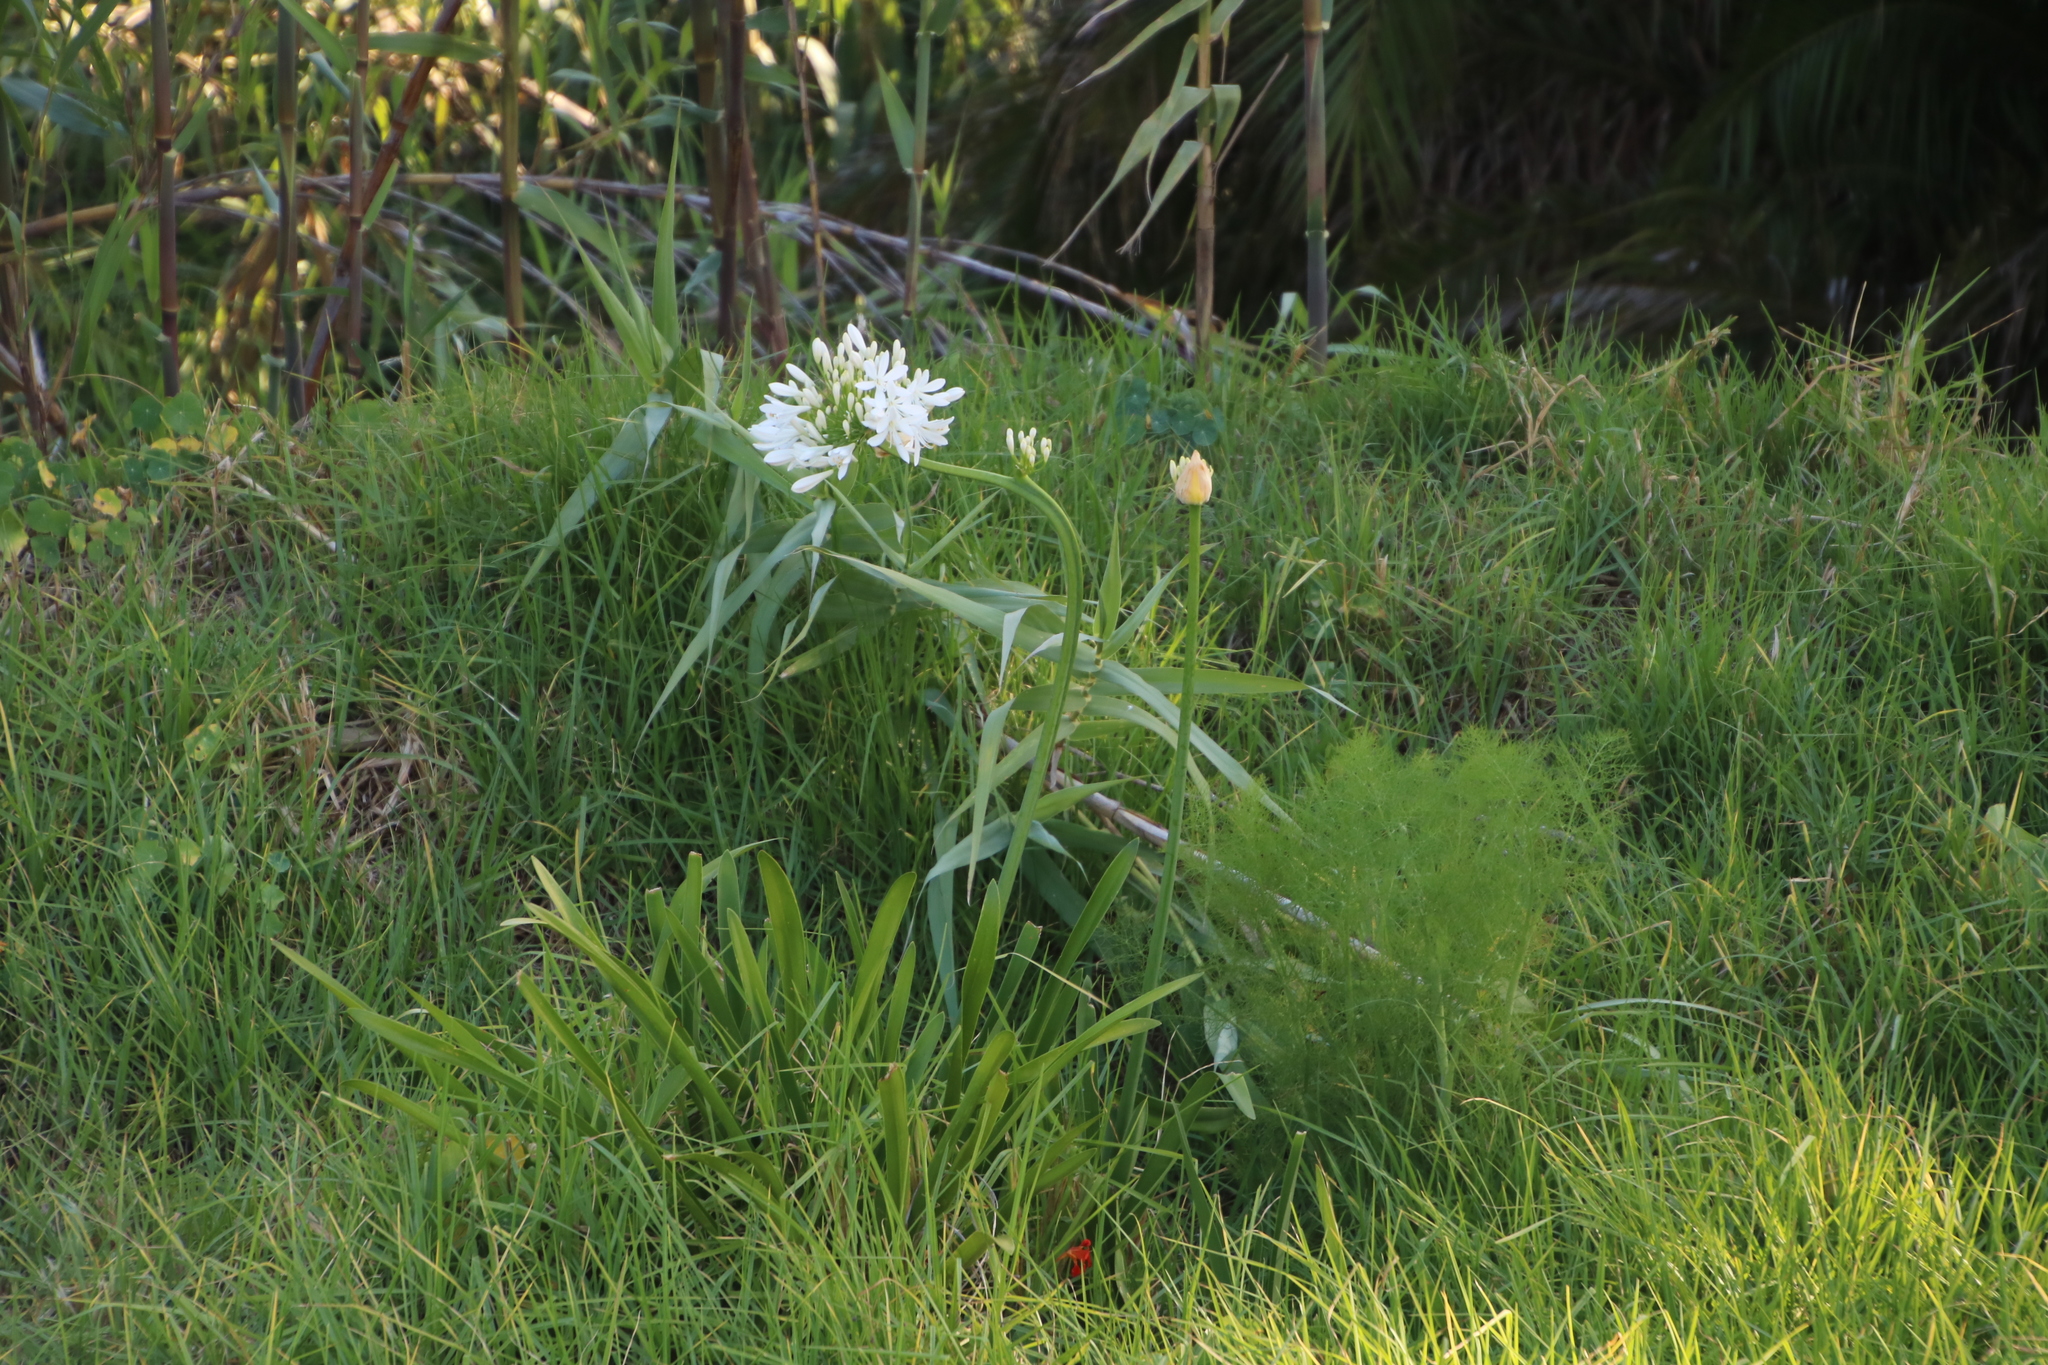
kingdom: Plantae
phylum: Tracheophyta
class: Liliopsida
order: Asparagales
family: Amaryllidaceae
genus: Agapanthus
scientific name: Agapanthus praecox
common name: African-lily
